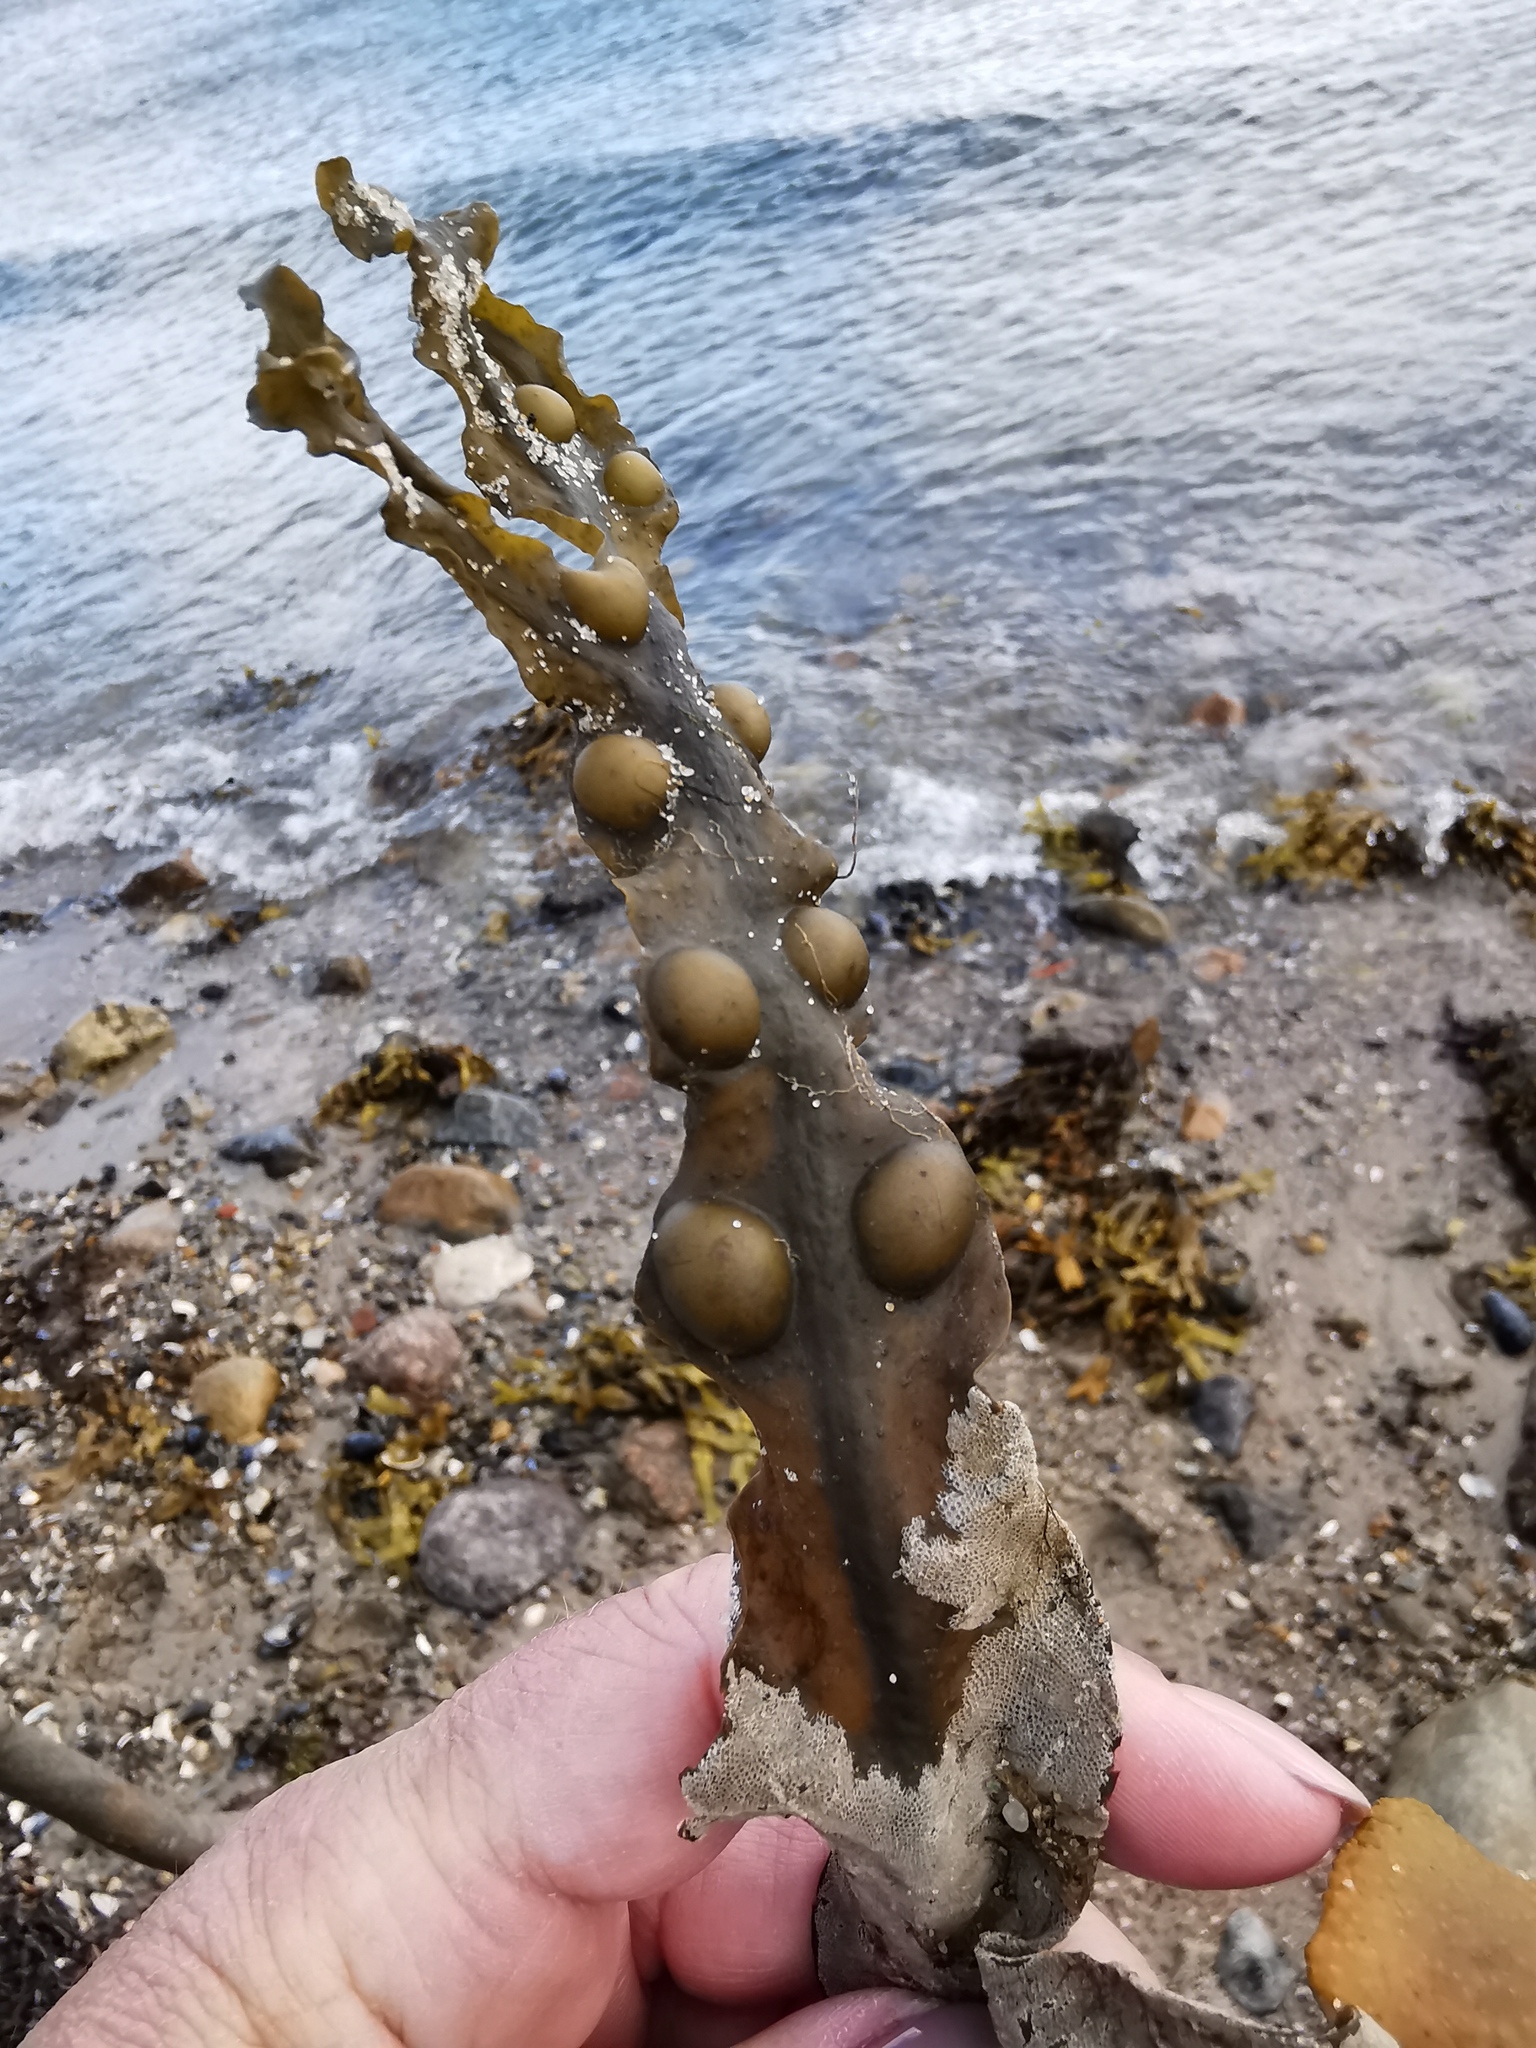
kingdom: Chromista
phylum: Ochrophyta
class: Phaeophyceae
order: Fucales
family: Fucaceae
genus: Fucus
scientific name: Fucus vesiculosus
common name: Bladder wrack
